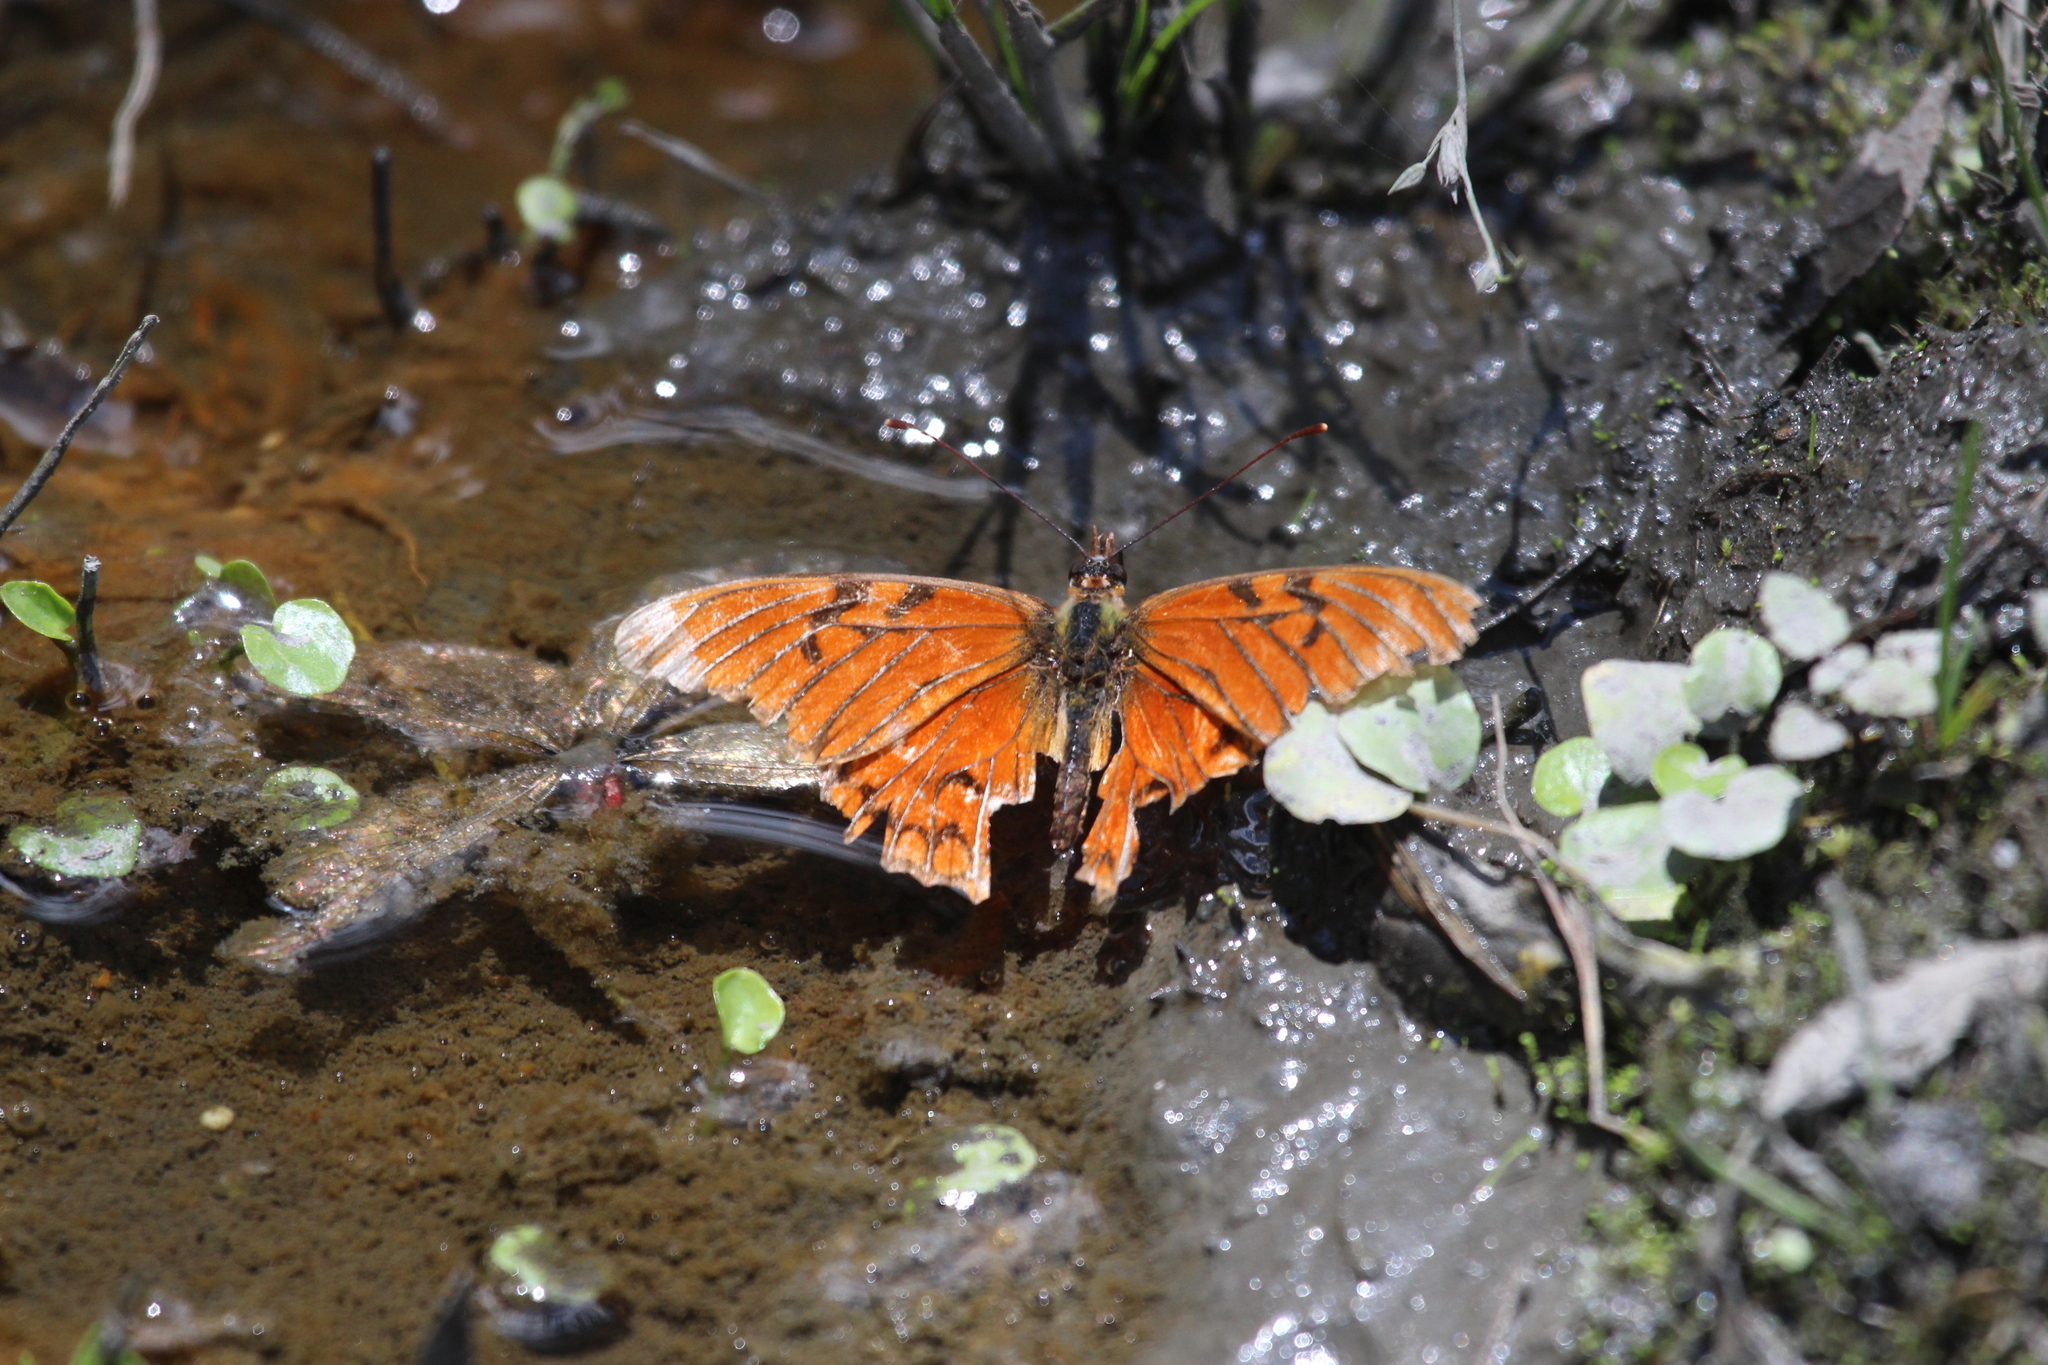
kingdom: Animalia
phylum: Arthropoda
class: Insecta
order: Lepidoptera
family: Nymphalidae
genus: Dione
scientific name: Dione glycera
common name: Andean silverspot
